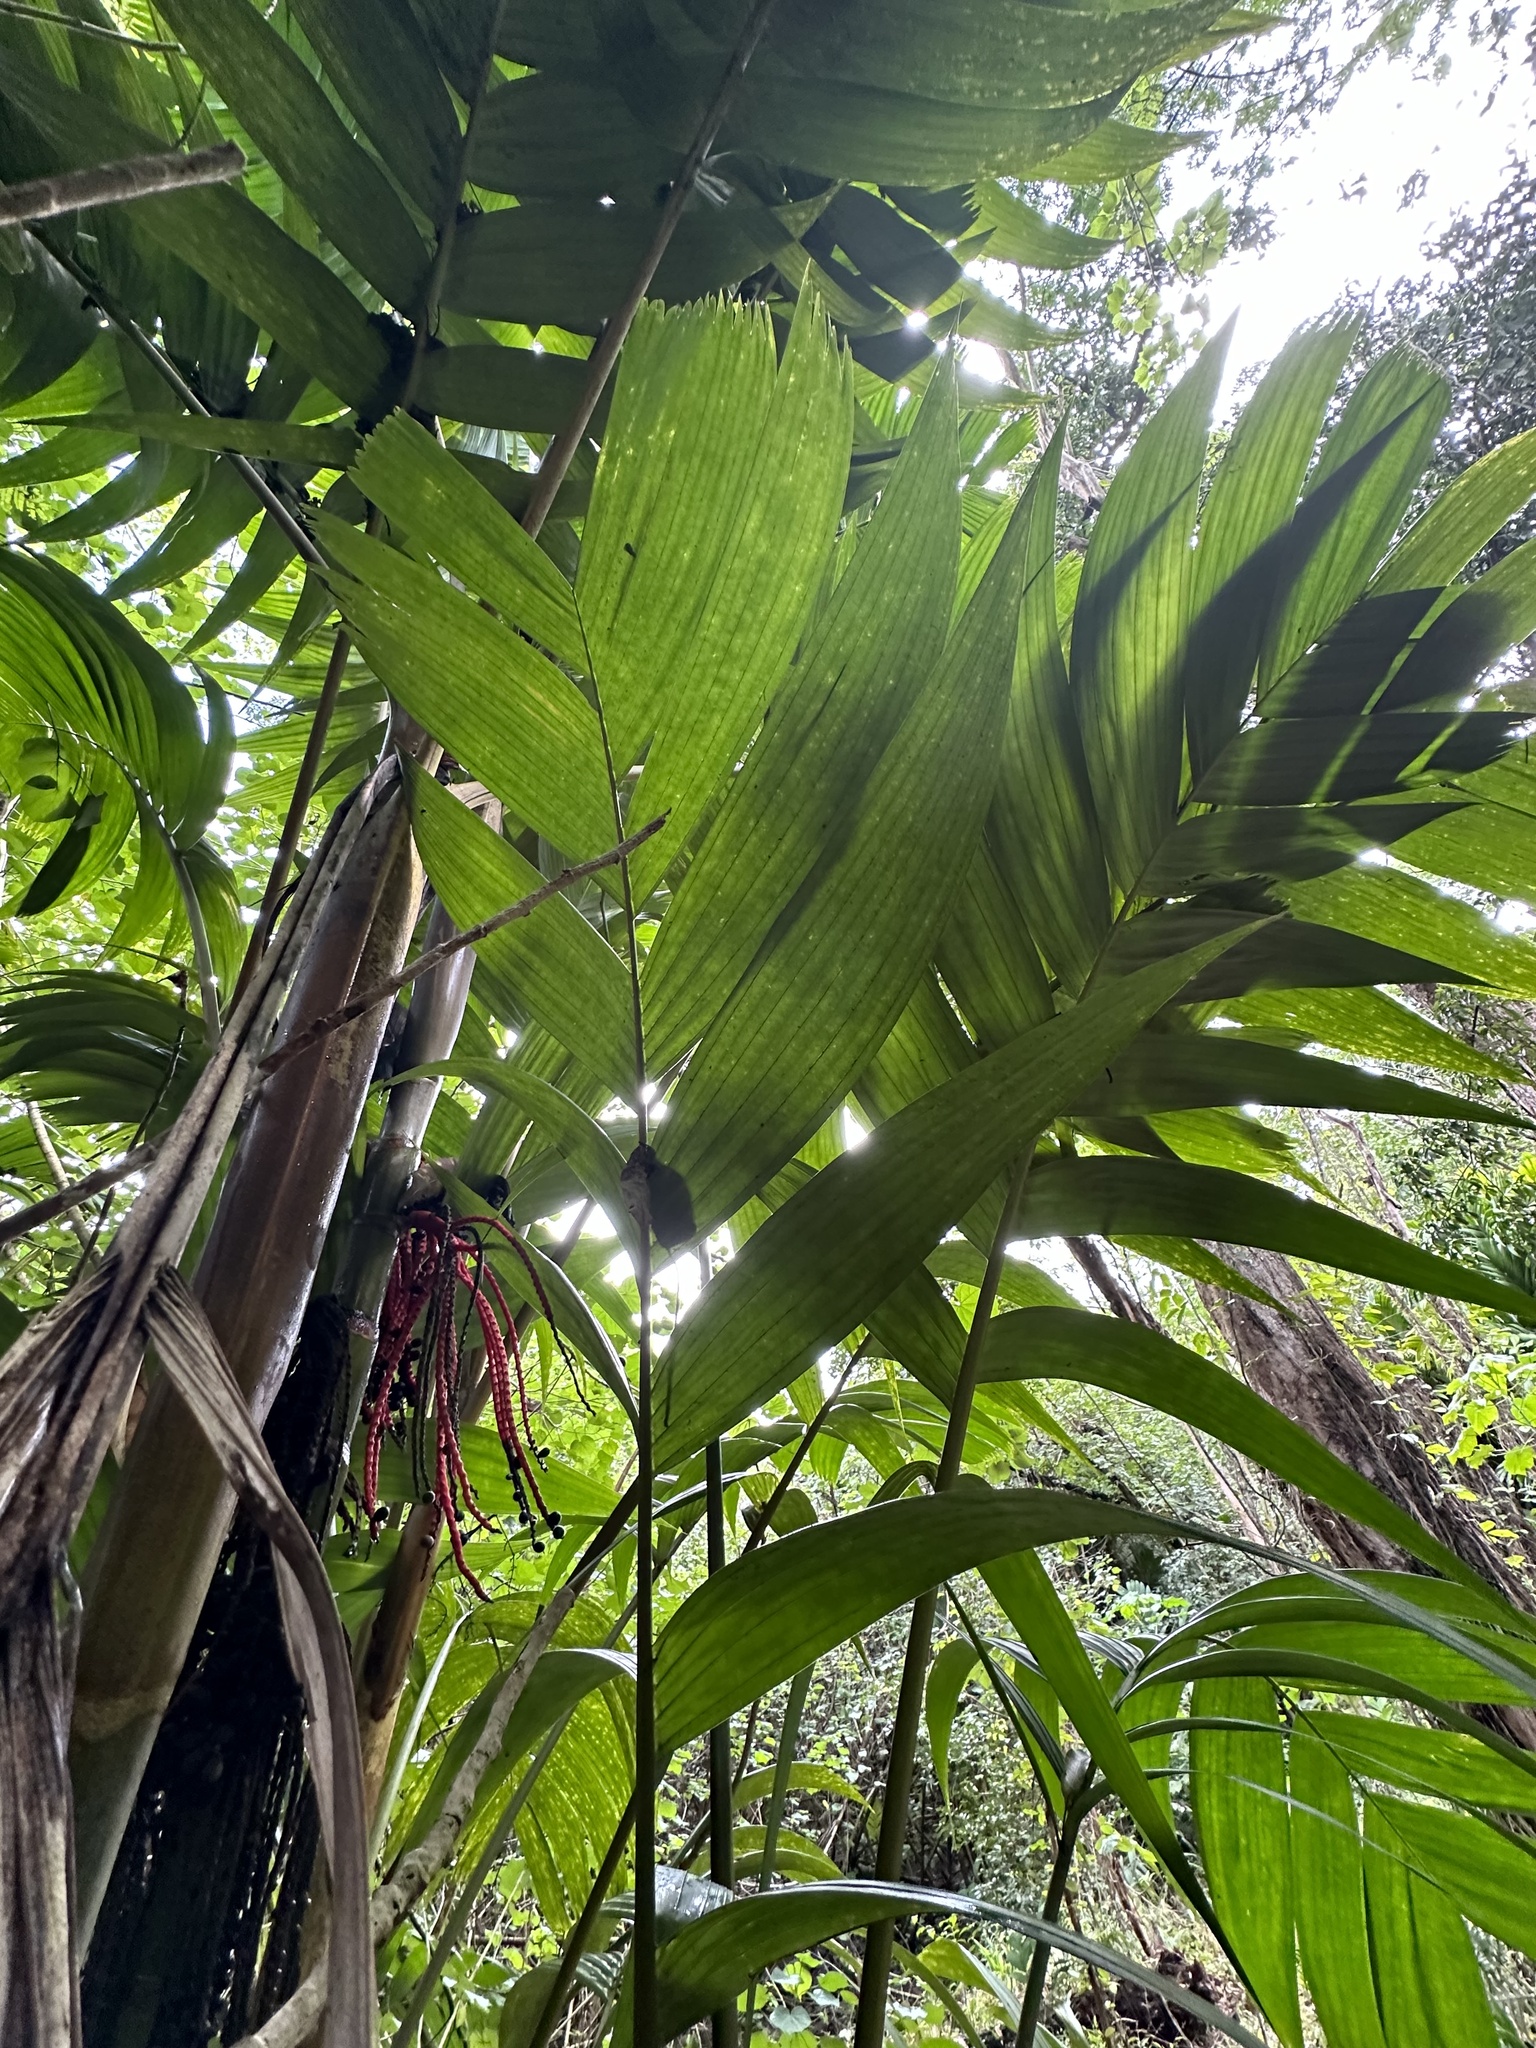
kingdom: Plantae
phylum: Tracheophyta
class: Liliopsida
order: Arecales
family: Arecaceae
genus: Pinanga
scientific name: Pinanga coronata
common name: Ivory cane palm
